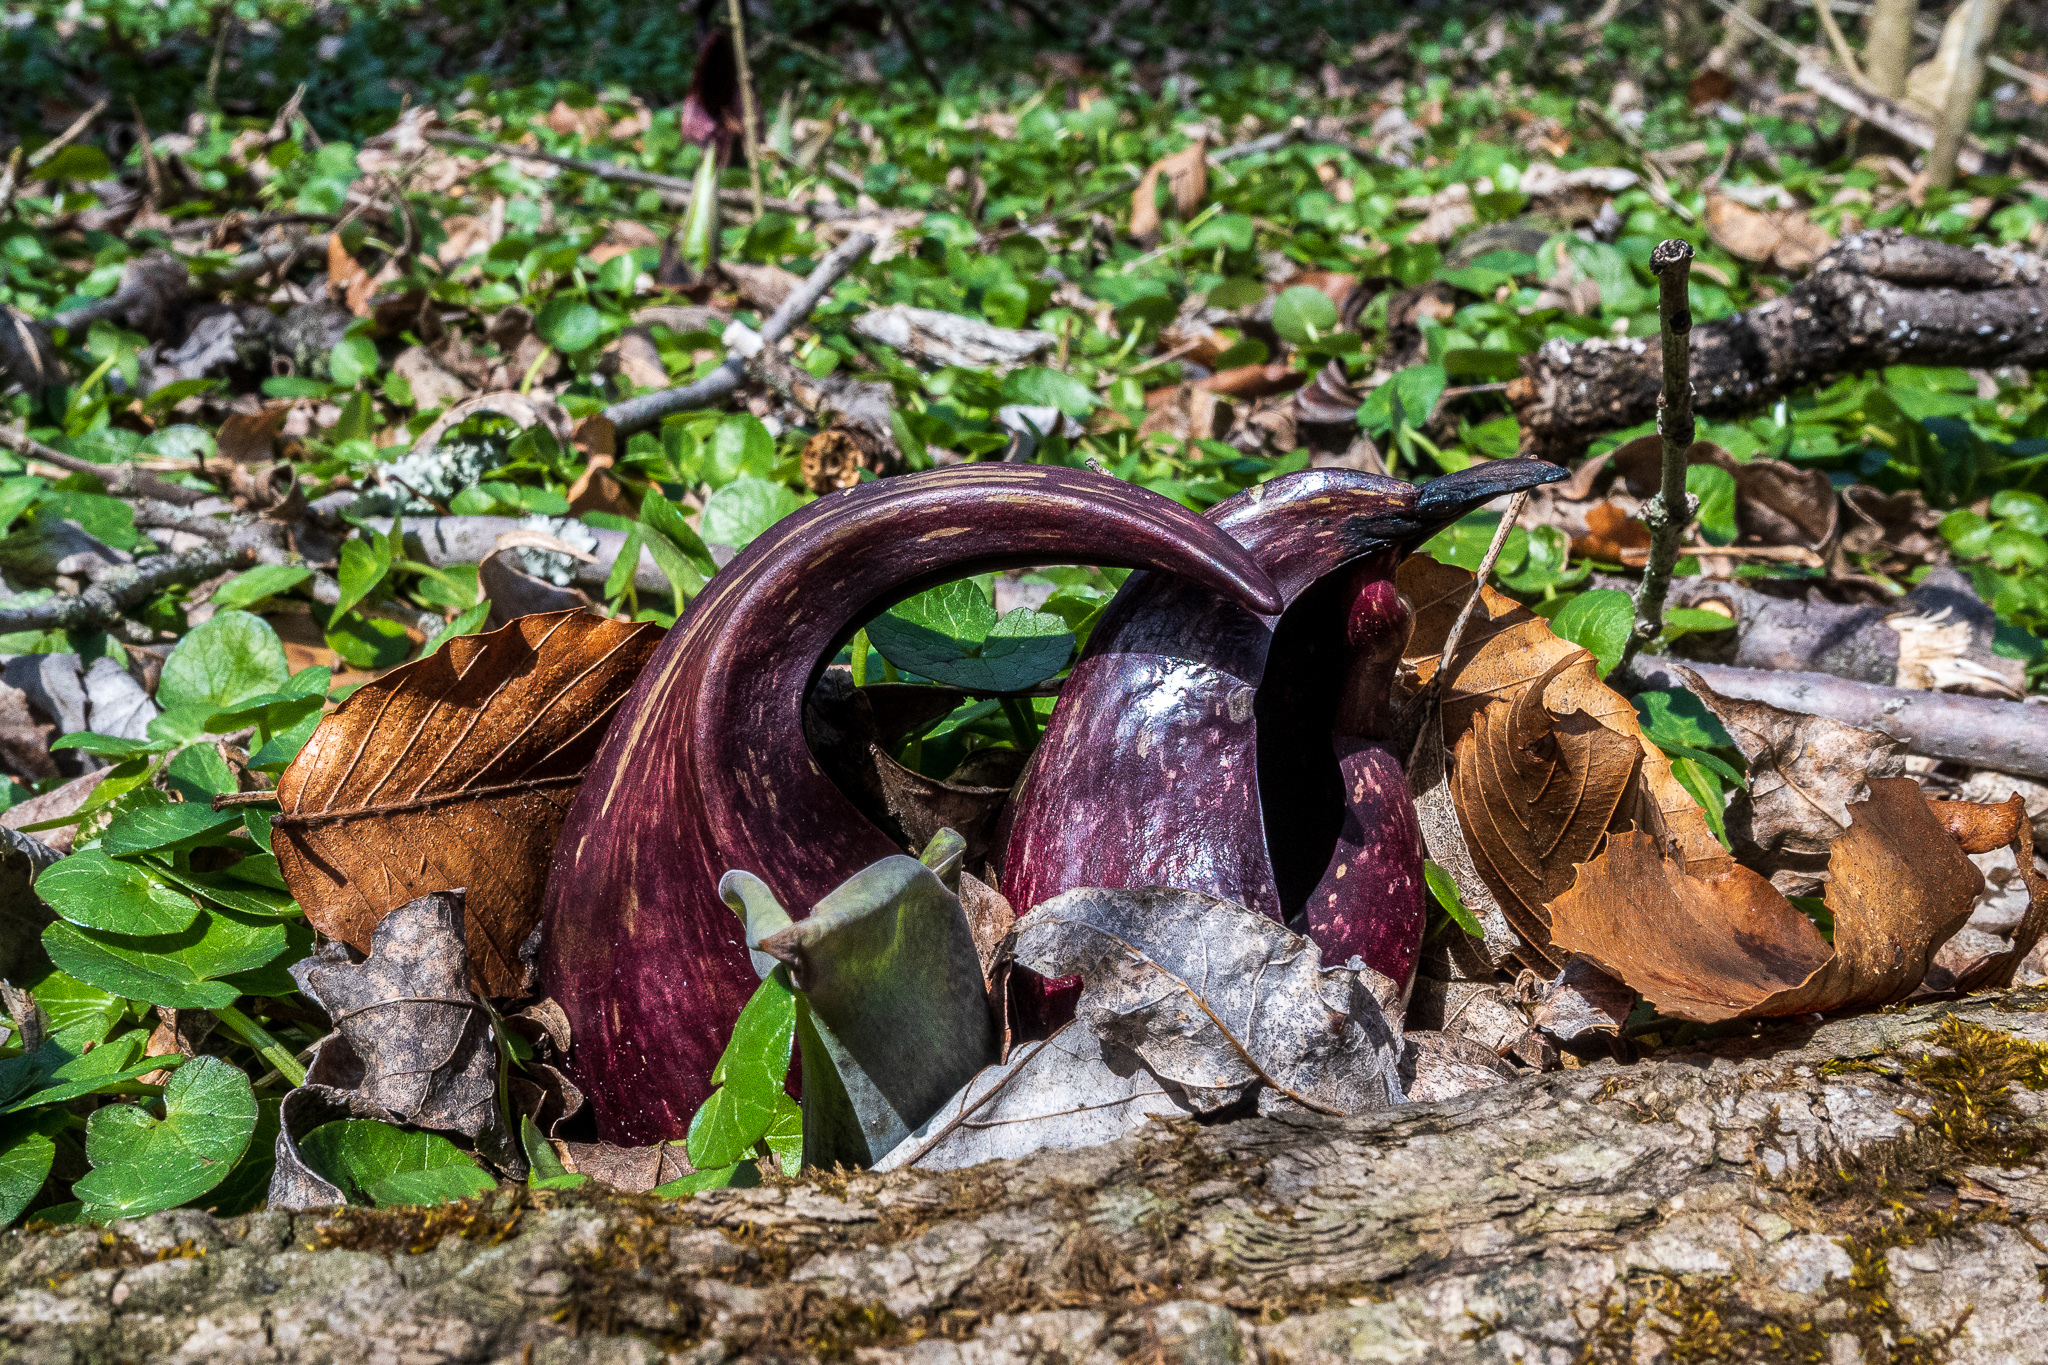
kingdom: Plantae
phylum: Tracheophyta
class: Liliopsida
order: Alismatales
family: Araceae
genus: Symplocarpus
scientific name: Symplocarpus foetidus
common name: Eastern skunk cabbage
